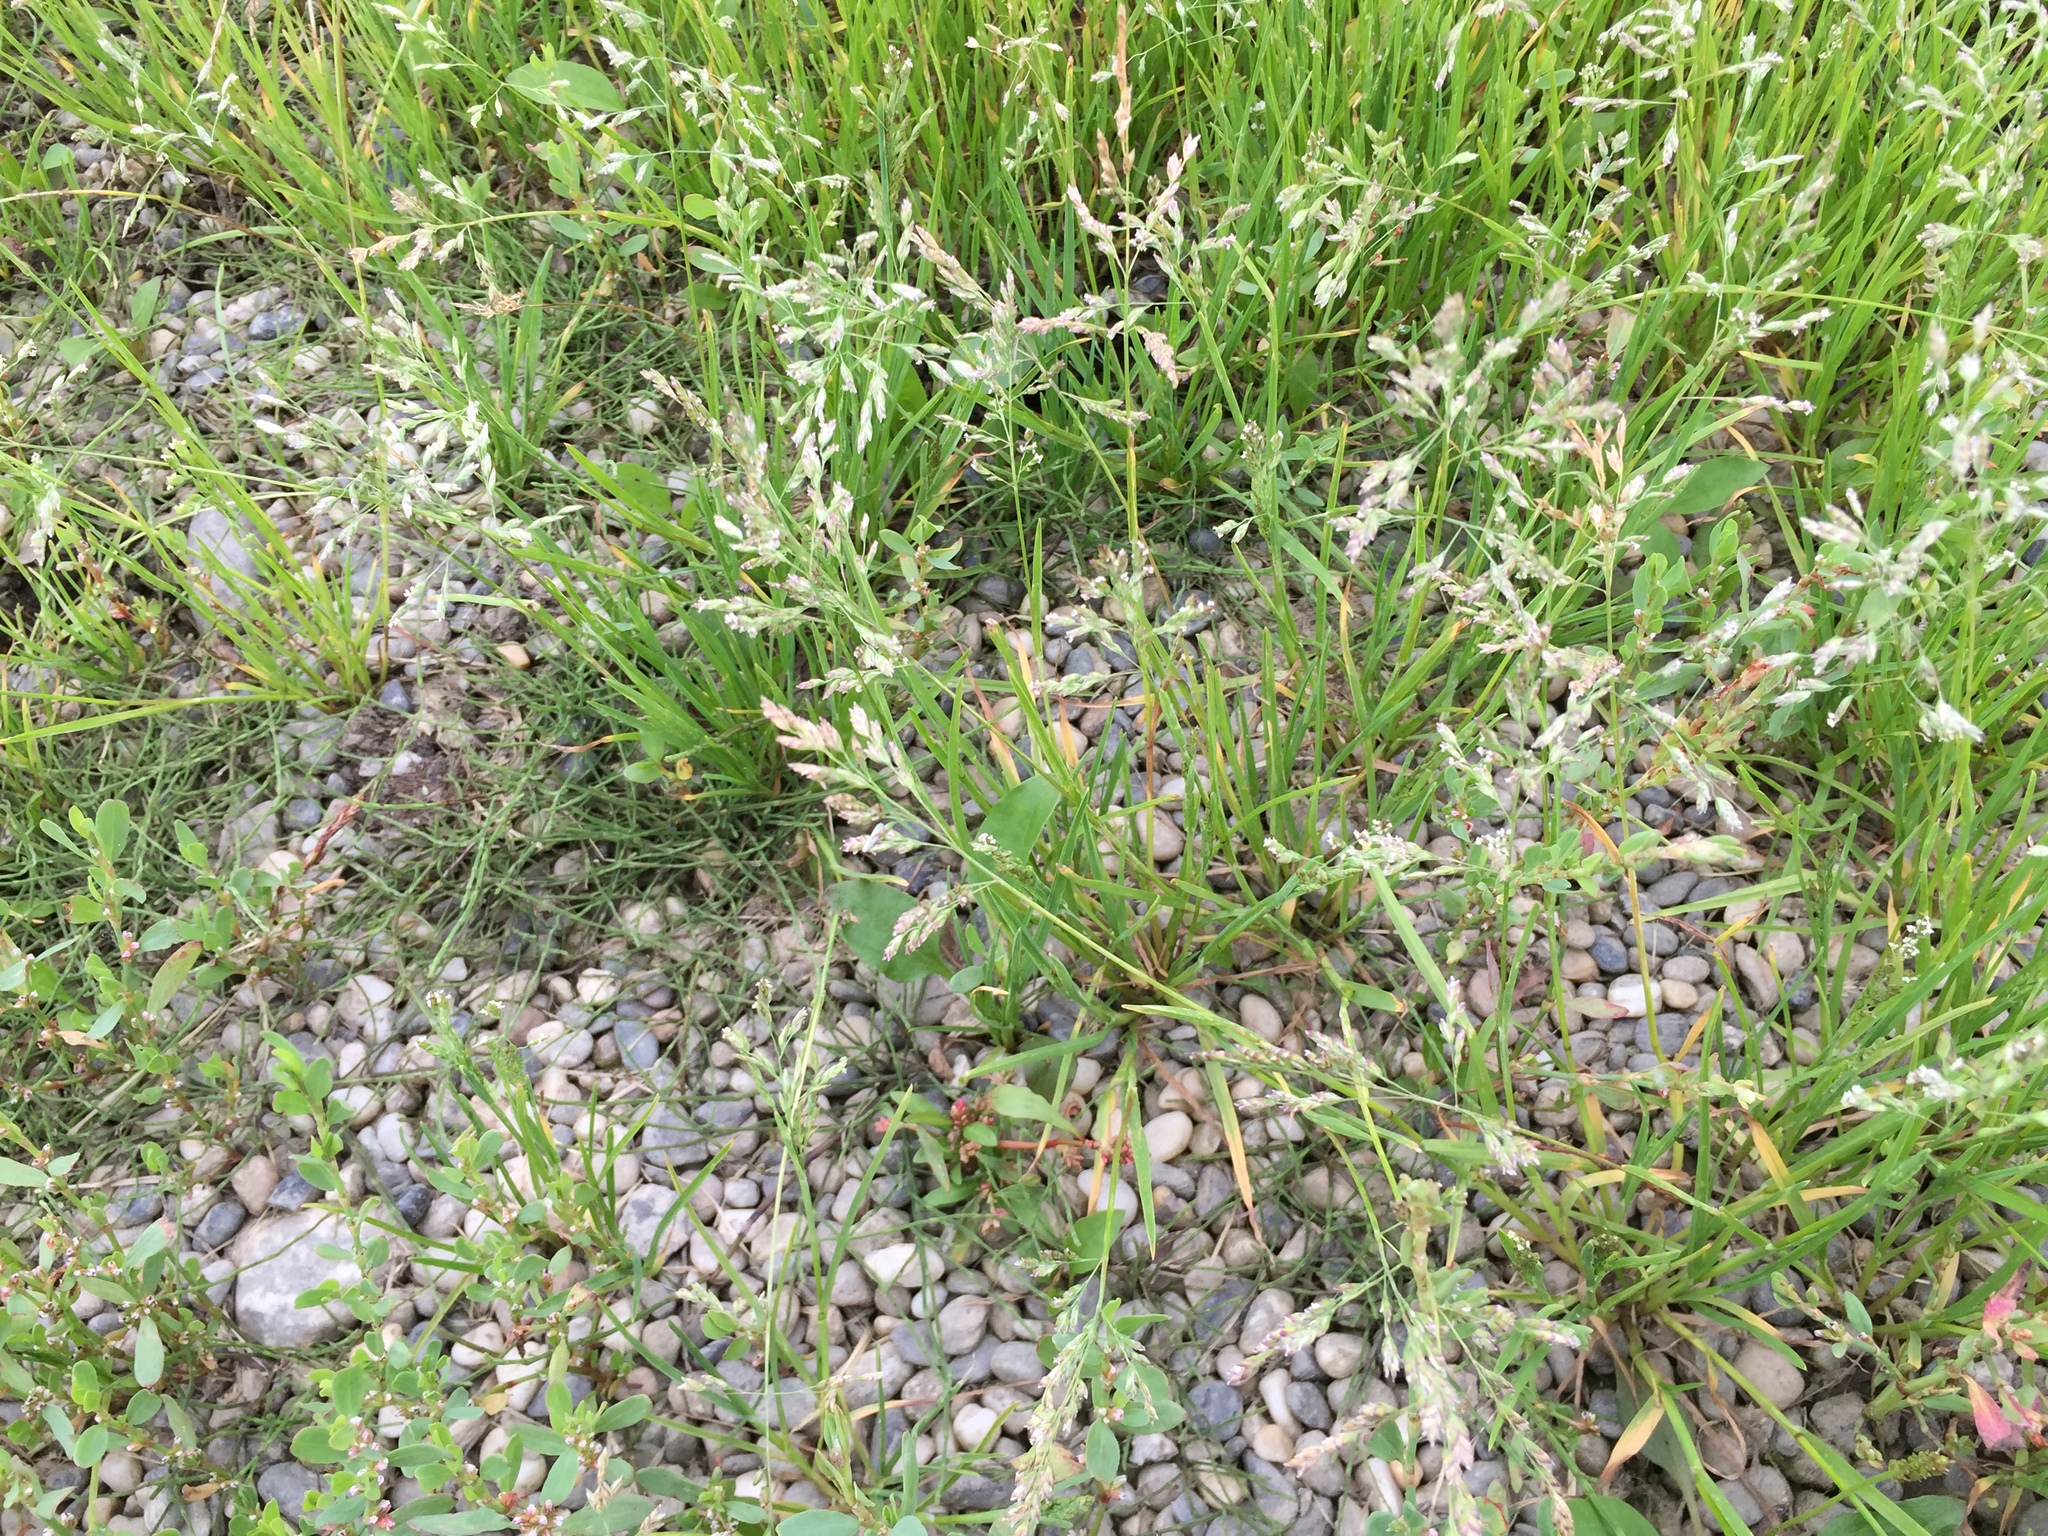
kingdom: Plantae
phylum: Tracheophyta
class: Liliopsida
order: Poales
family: Poaceae
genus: Poa
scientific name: Poa annua
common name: Annual bluegrass
